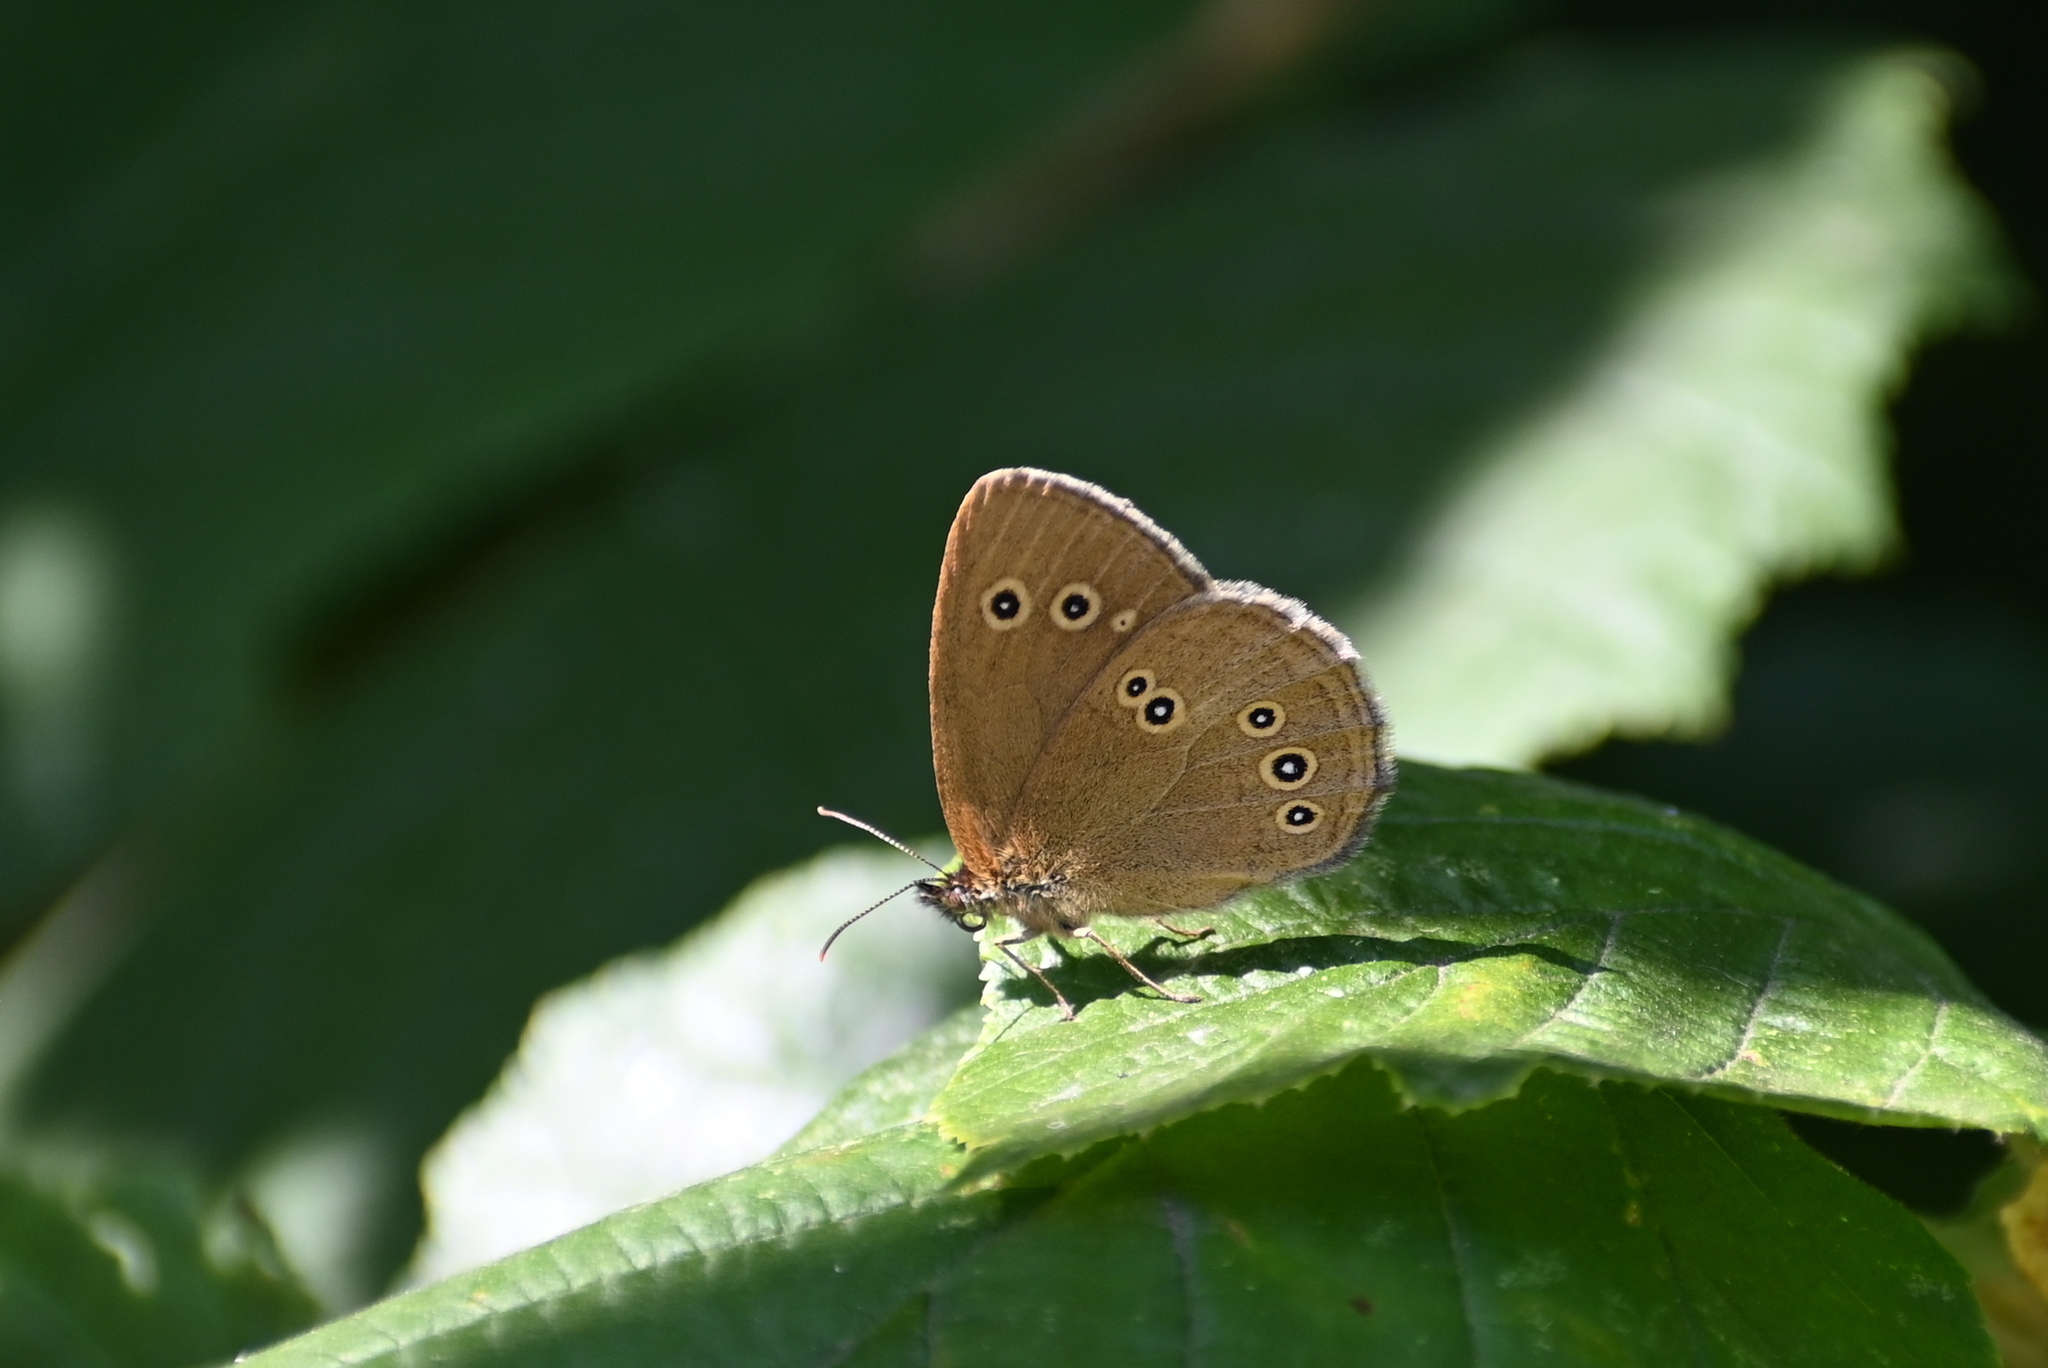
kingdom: Animalia
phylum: Arthropoda
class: Insecta
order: Lepidoptera
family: Nymphalidae
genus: Aphantopus
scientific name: Aphantopus hyperantus
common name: Ringlet
